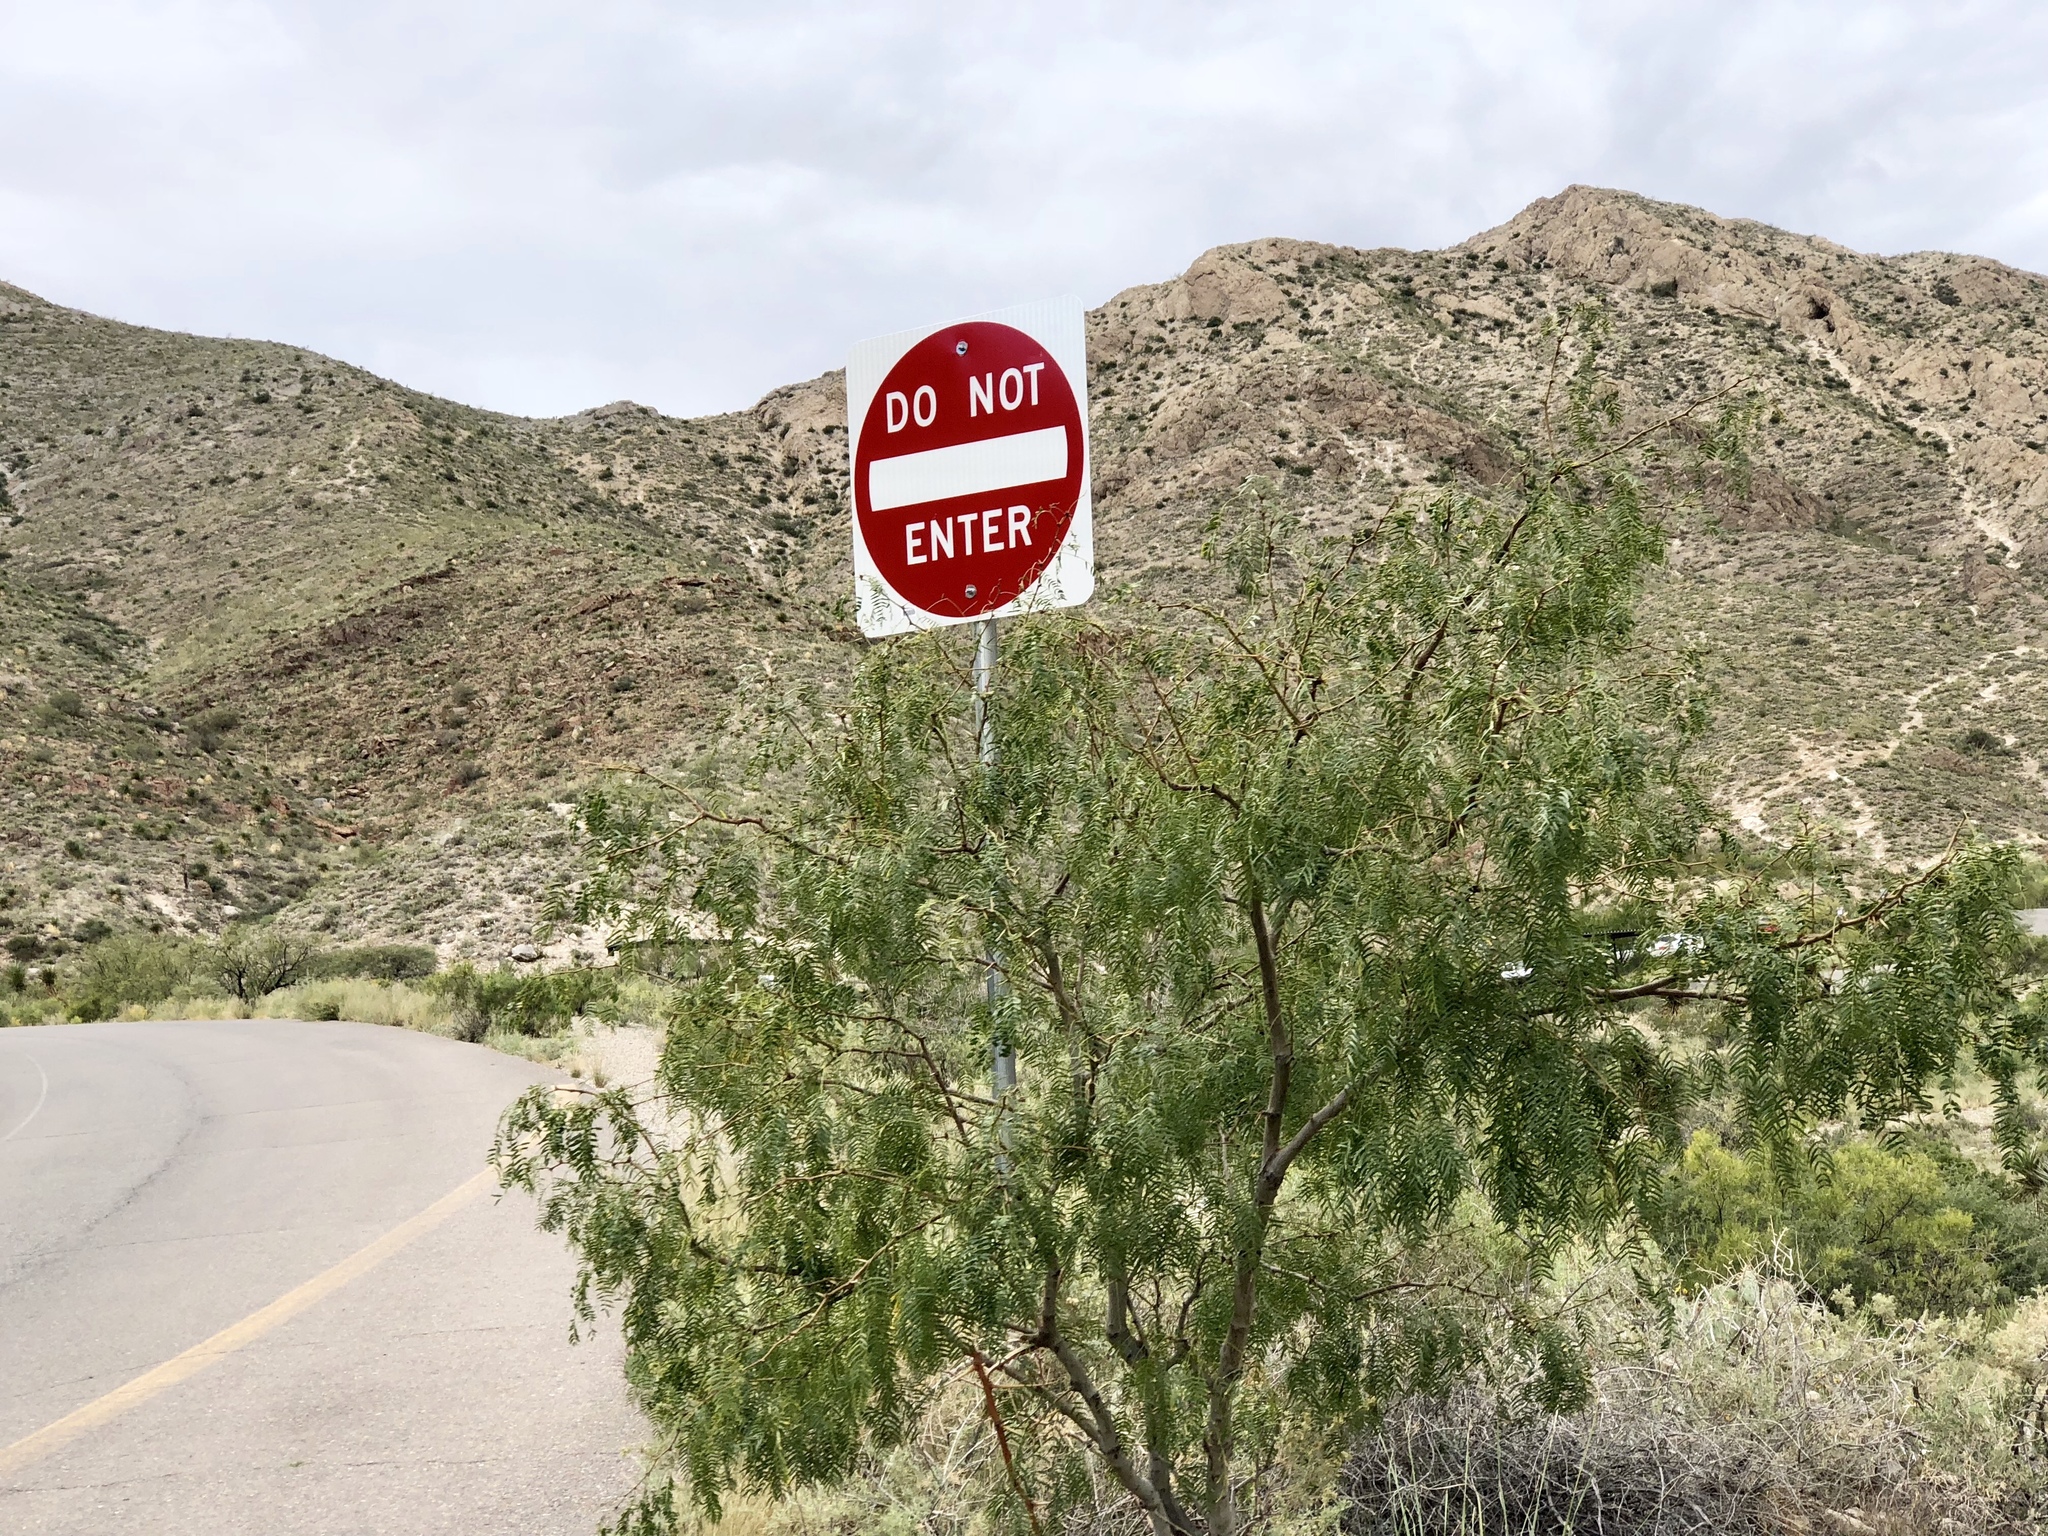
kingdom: Plantae
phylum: Tracheophyta
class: Magnoliopsida
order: Fabales
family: Fabaceae
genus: Prosopis
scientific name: Prosopis glandulosa
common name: Honey mesquite
